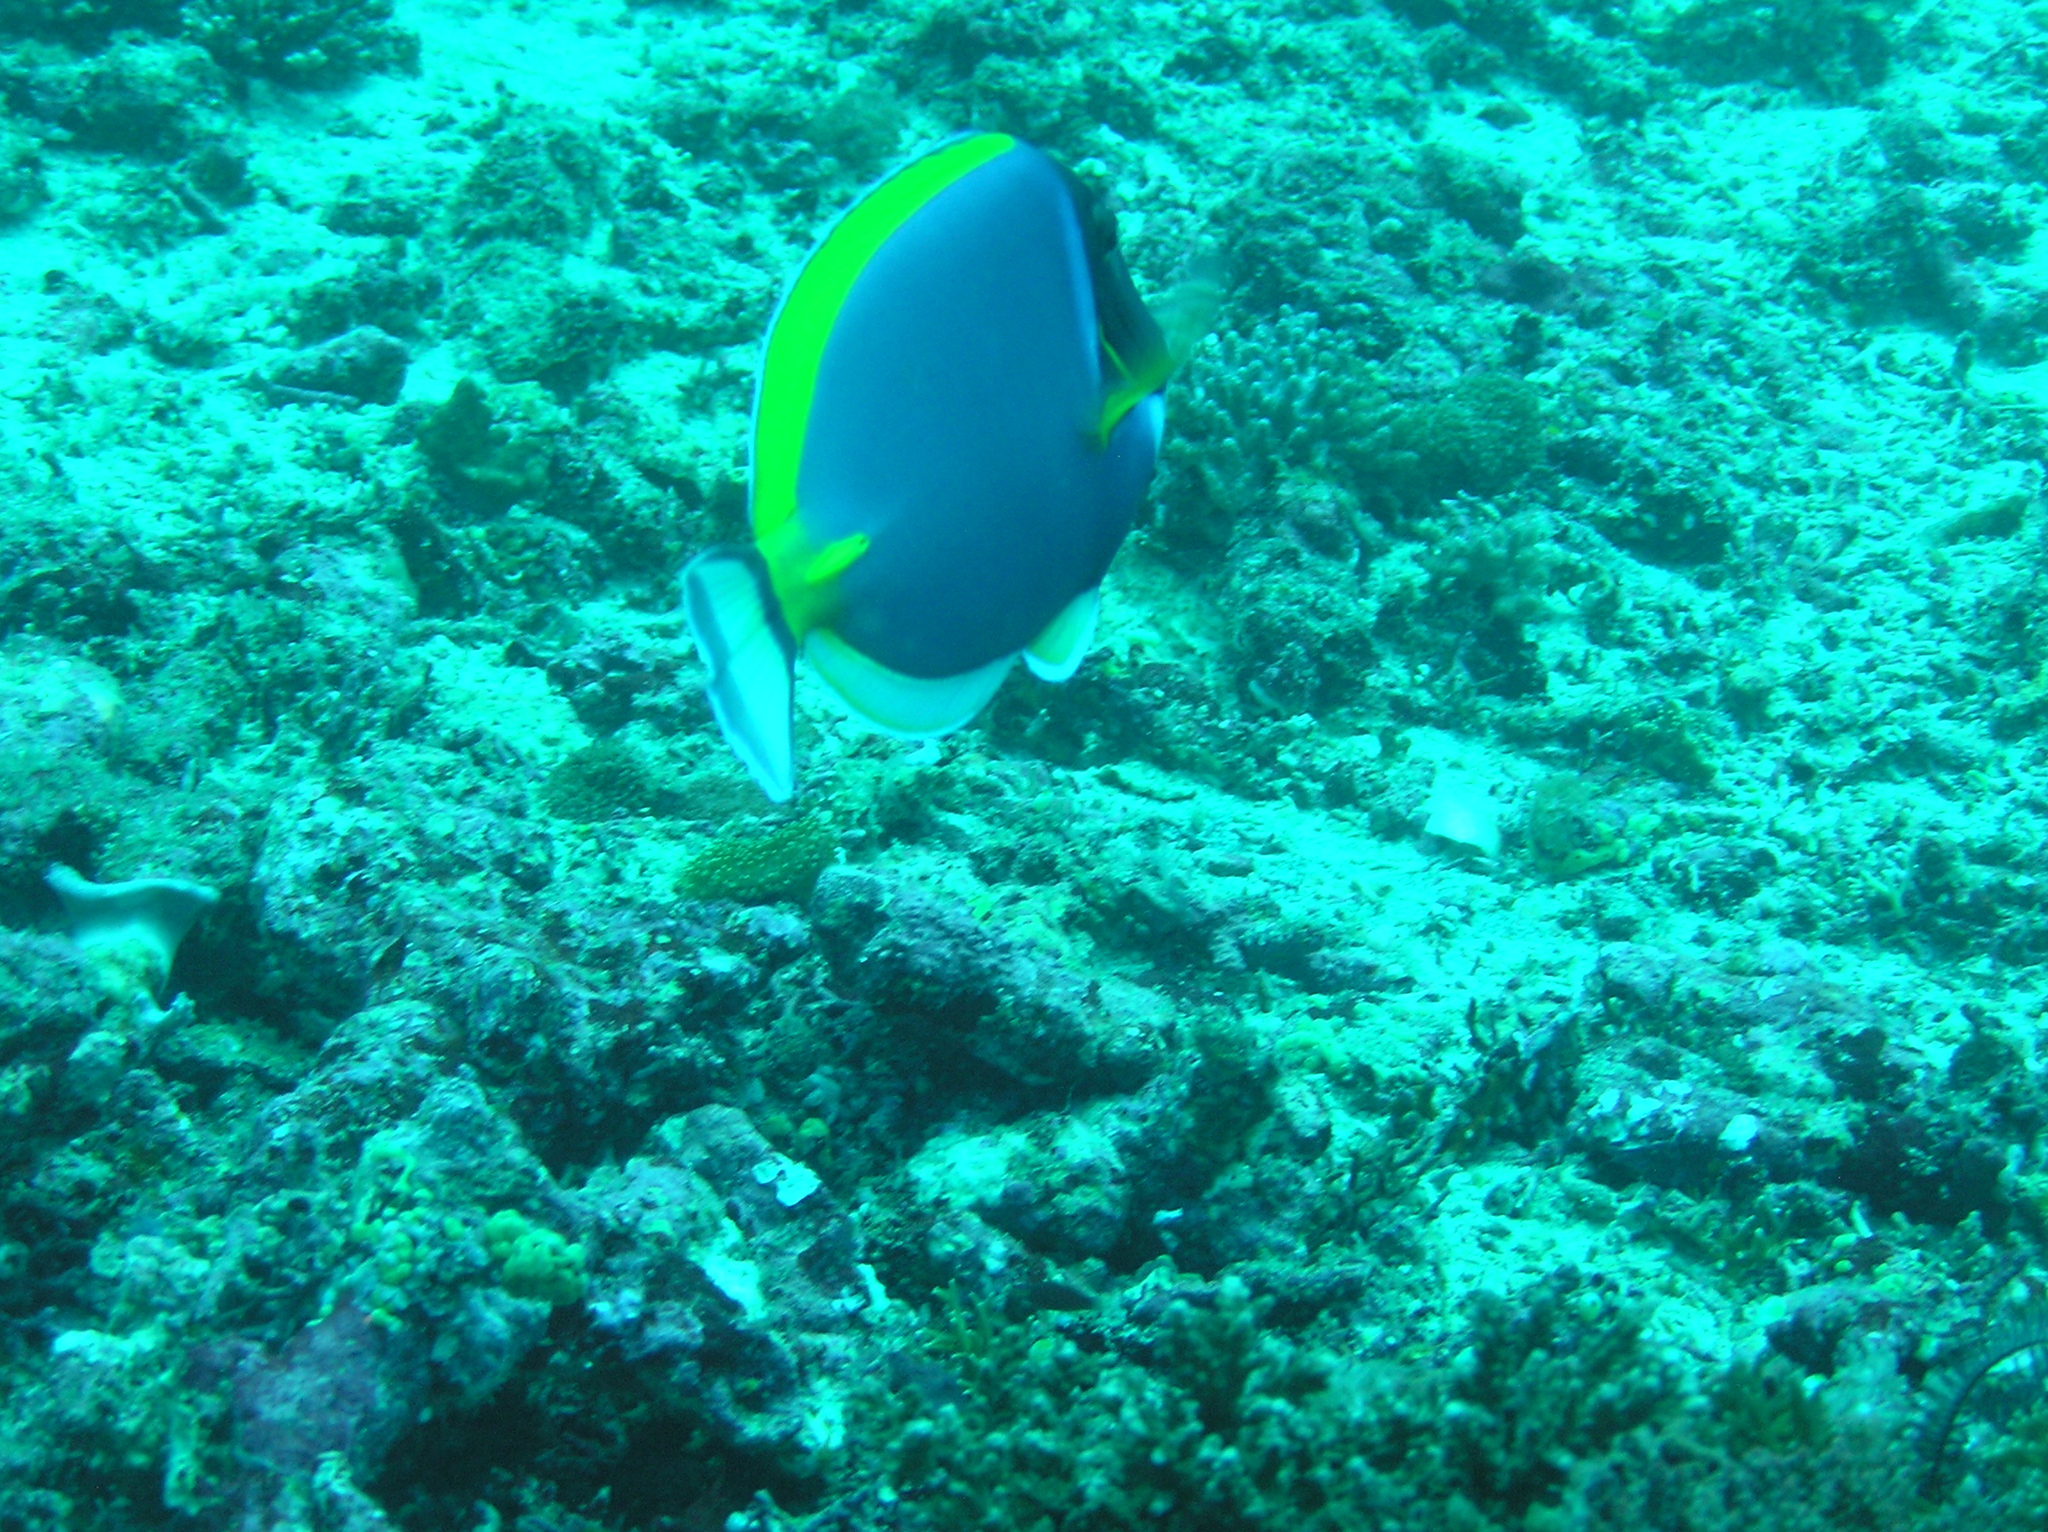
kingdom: Animalia
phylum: Chordata
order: Perciformes
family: Acanthuridae
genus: Acanthurus
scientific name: Acanthurus leucosternon
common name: Blue surgeonfish
